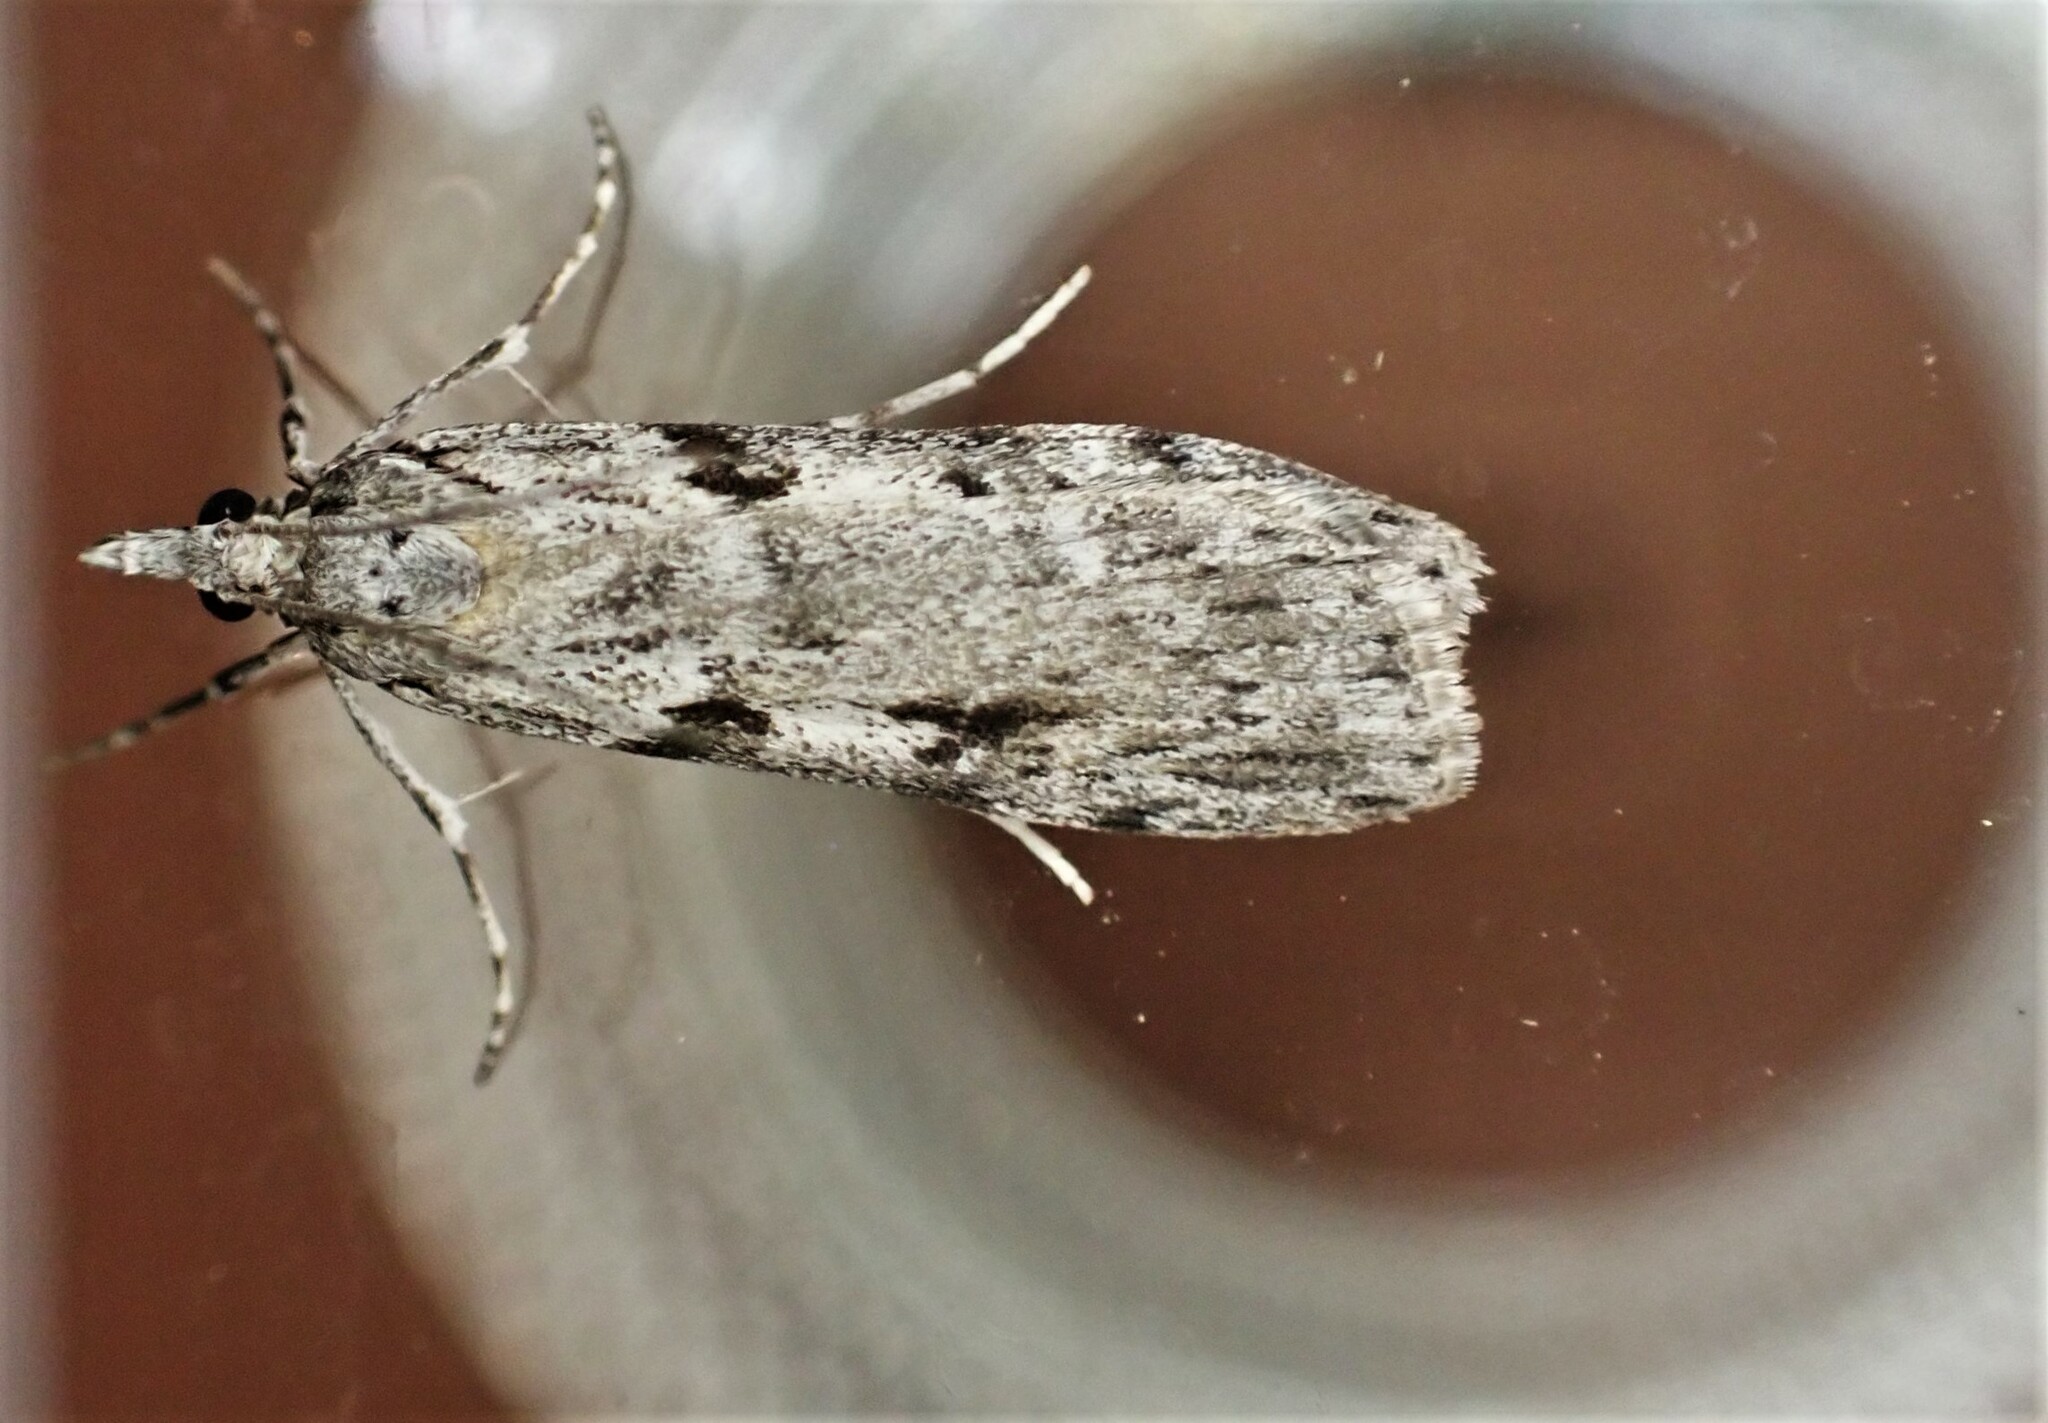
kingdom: Animalia
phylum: Arthropoda
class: Insecta
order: Lepidoptera
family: Crambidae
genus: Scoparia
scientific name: Scoparia halopis
